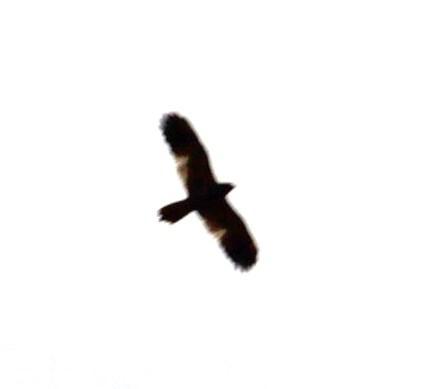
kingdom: Animalia
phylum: Chordata
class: Aves
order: Accipitriformes
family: Accipitridae
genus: Melierax
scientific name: Melierax canorus
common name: Pale chanting-goshawk
